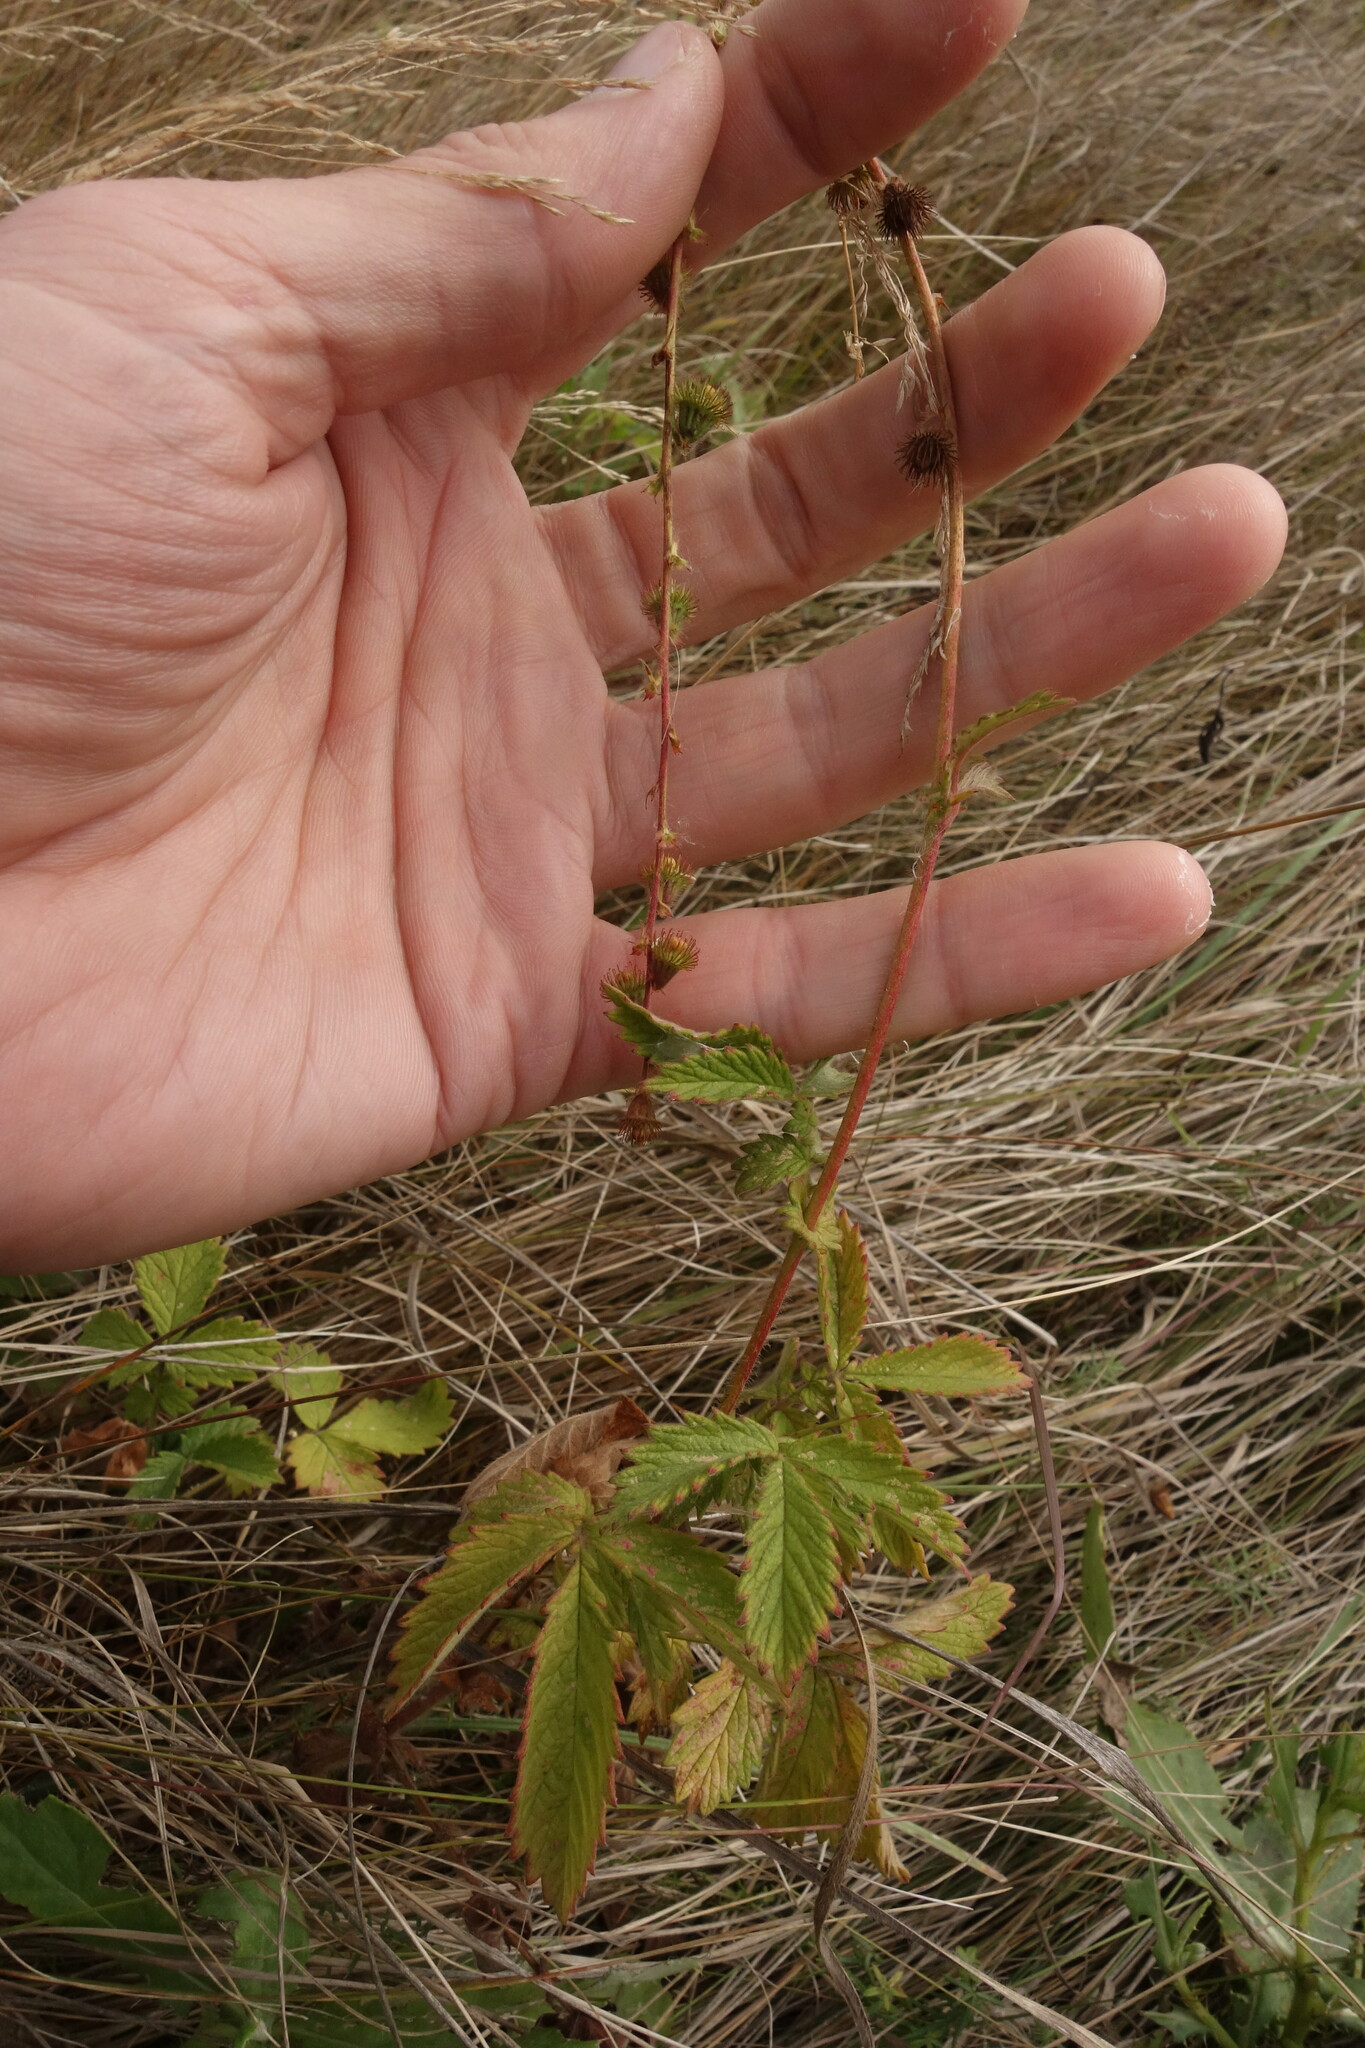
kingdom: Plantae
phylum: Tracheophyta
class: Magnoliopsida
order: Rosales
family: Rosaceae
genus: Agrimonia
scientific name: Agrimonia eupatoria
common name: Agrimony
